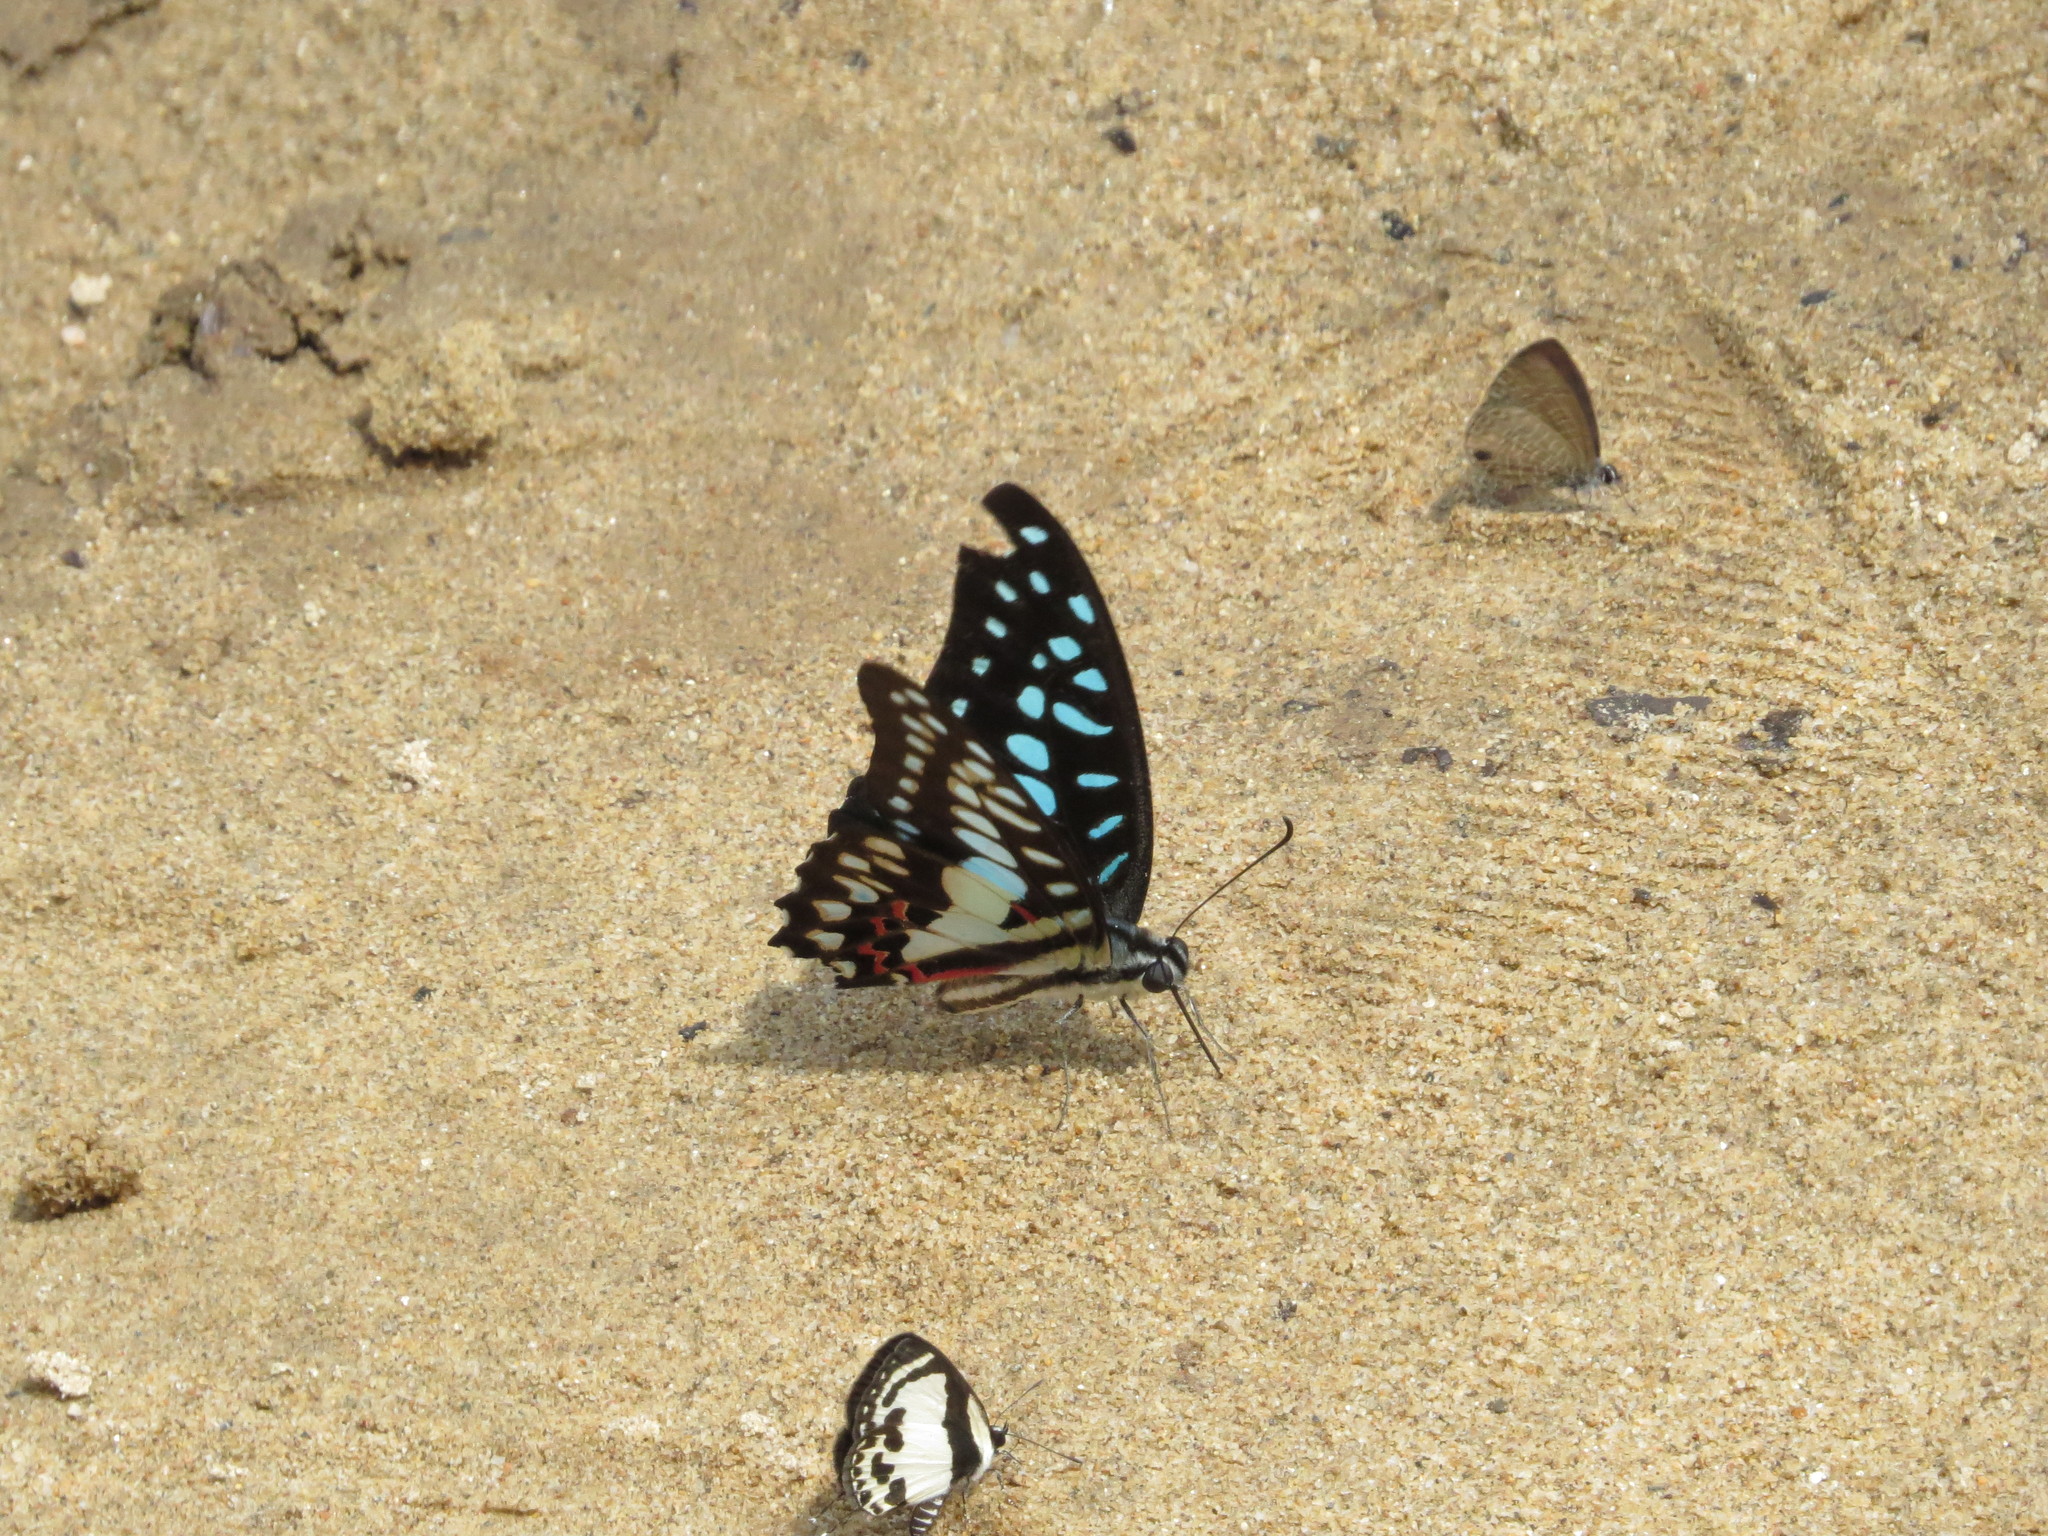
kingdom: Animalia
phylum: Arthropoda
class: Insecta
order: Lepidoptera
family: Papilionidae
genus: Graphium
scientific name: Graphium doson
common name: Common jay
